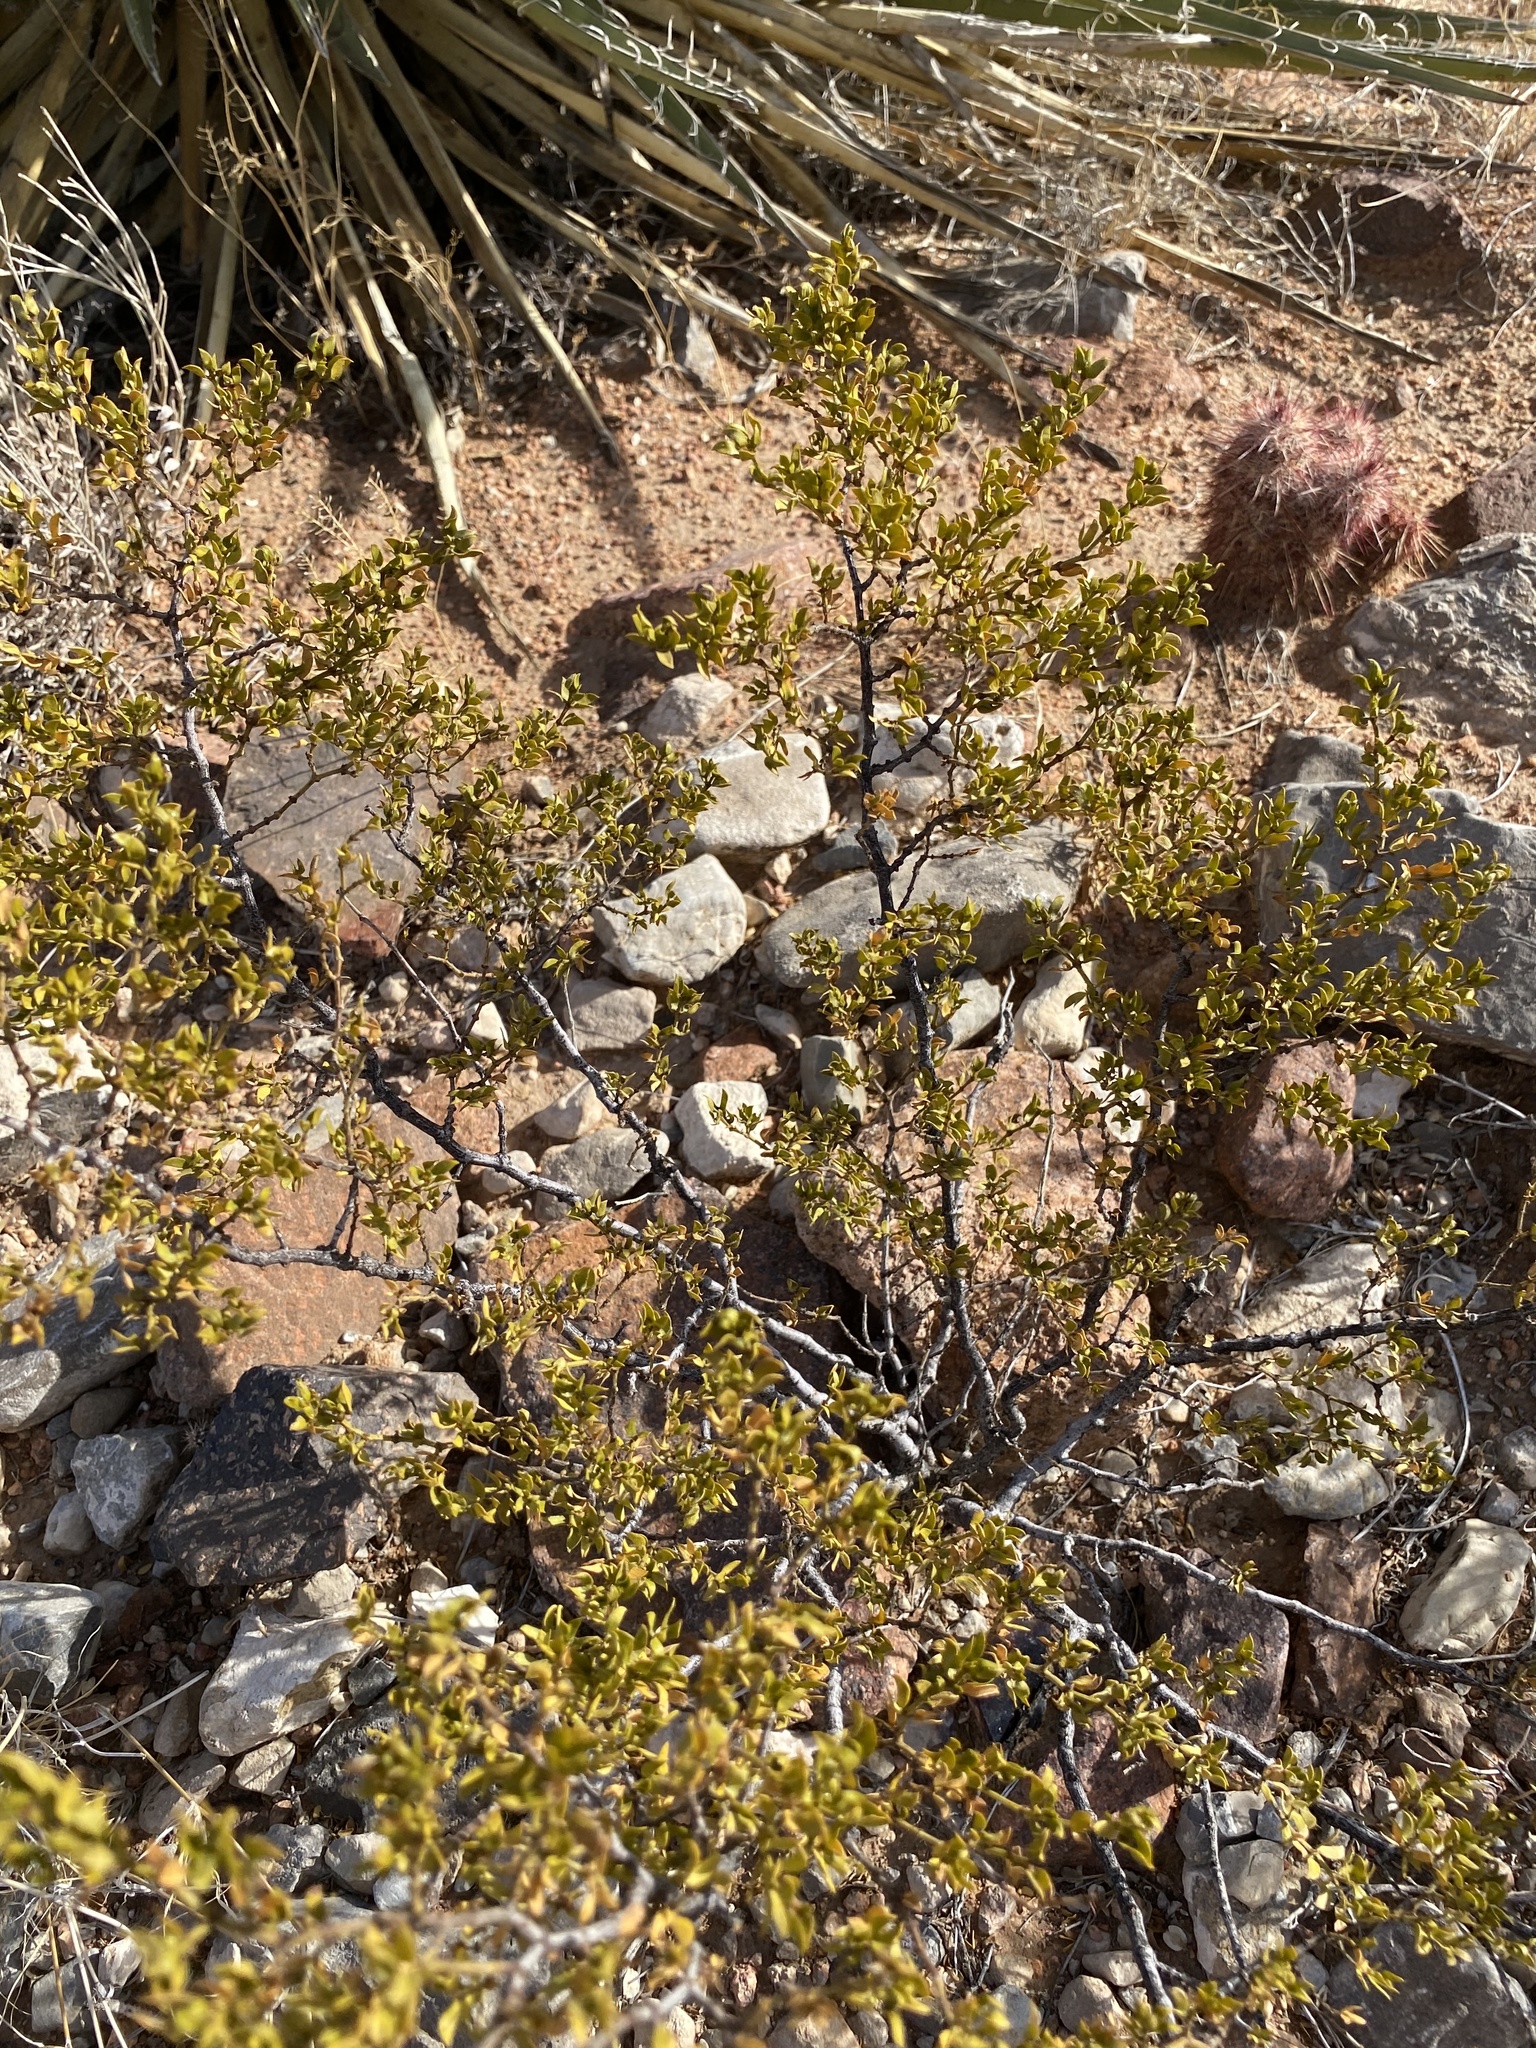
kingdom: Plantae
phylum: Tracheophyta
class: Magnoliopsida
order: Zygophyllales
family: Zygophyllaceae
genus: Larrea
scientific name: Larrea tridentata
